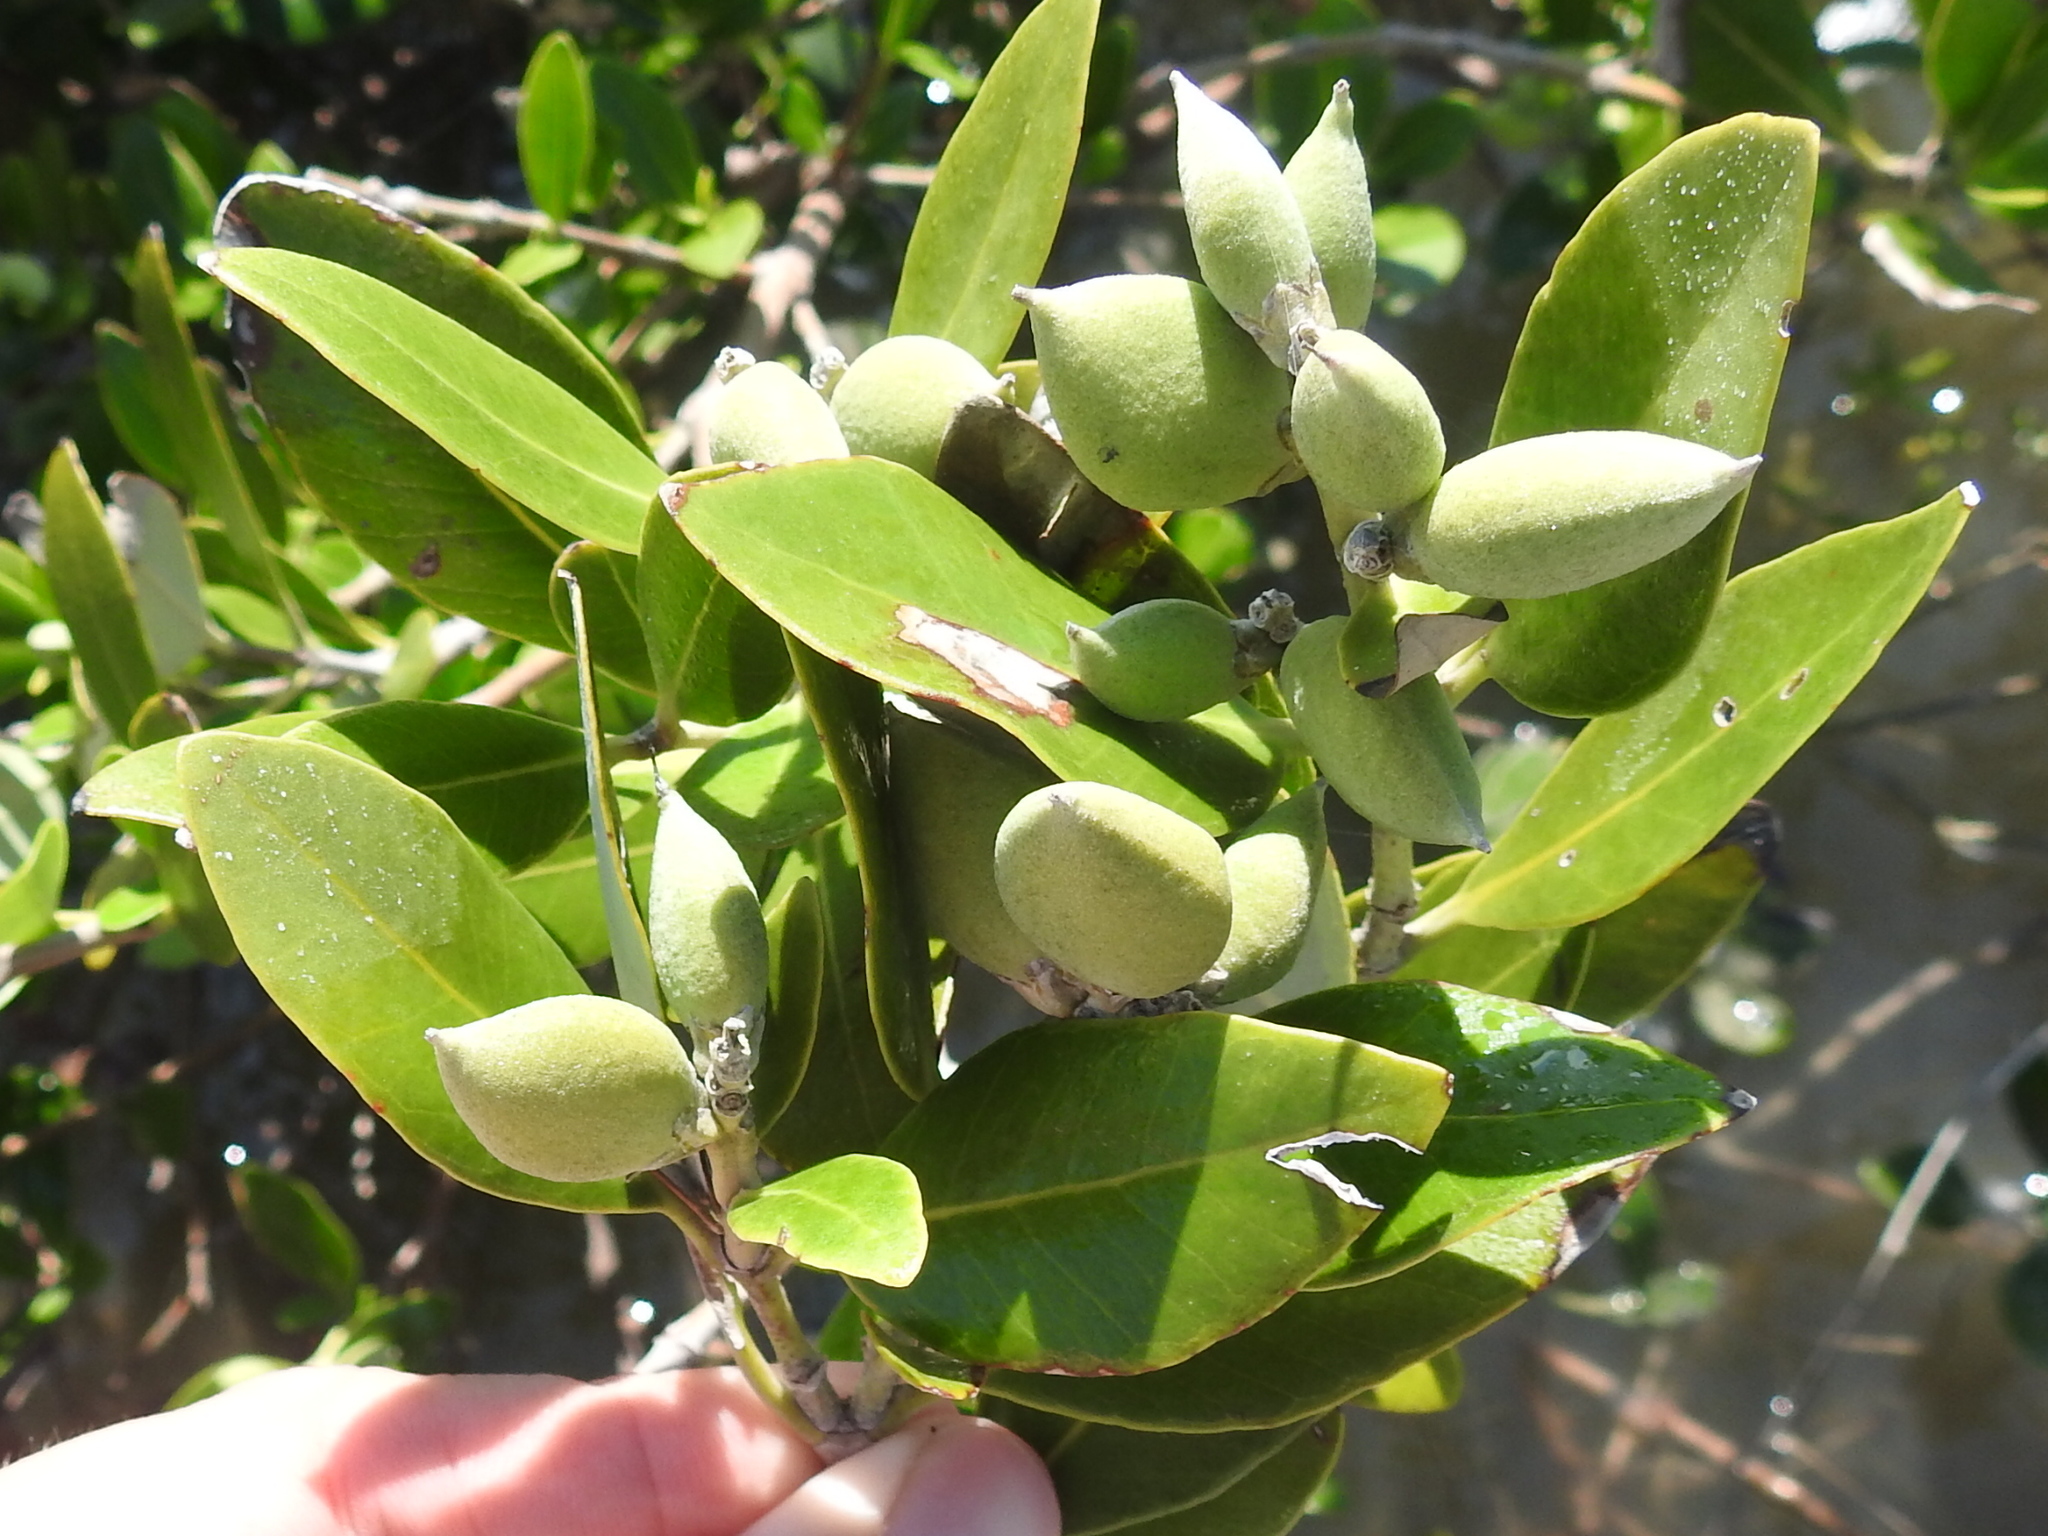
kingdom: Plantae
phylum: Tracheophyta
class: Magnoliopsida
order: Lamiales
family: Acanthaceae
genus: Avicennia
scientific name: Avicennia germinans
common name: Black mangrove
